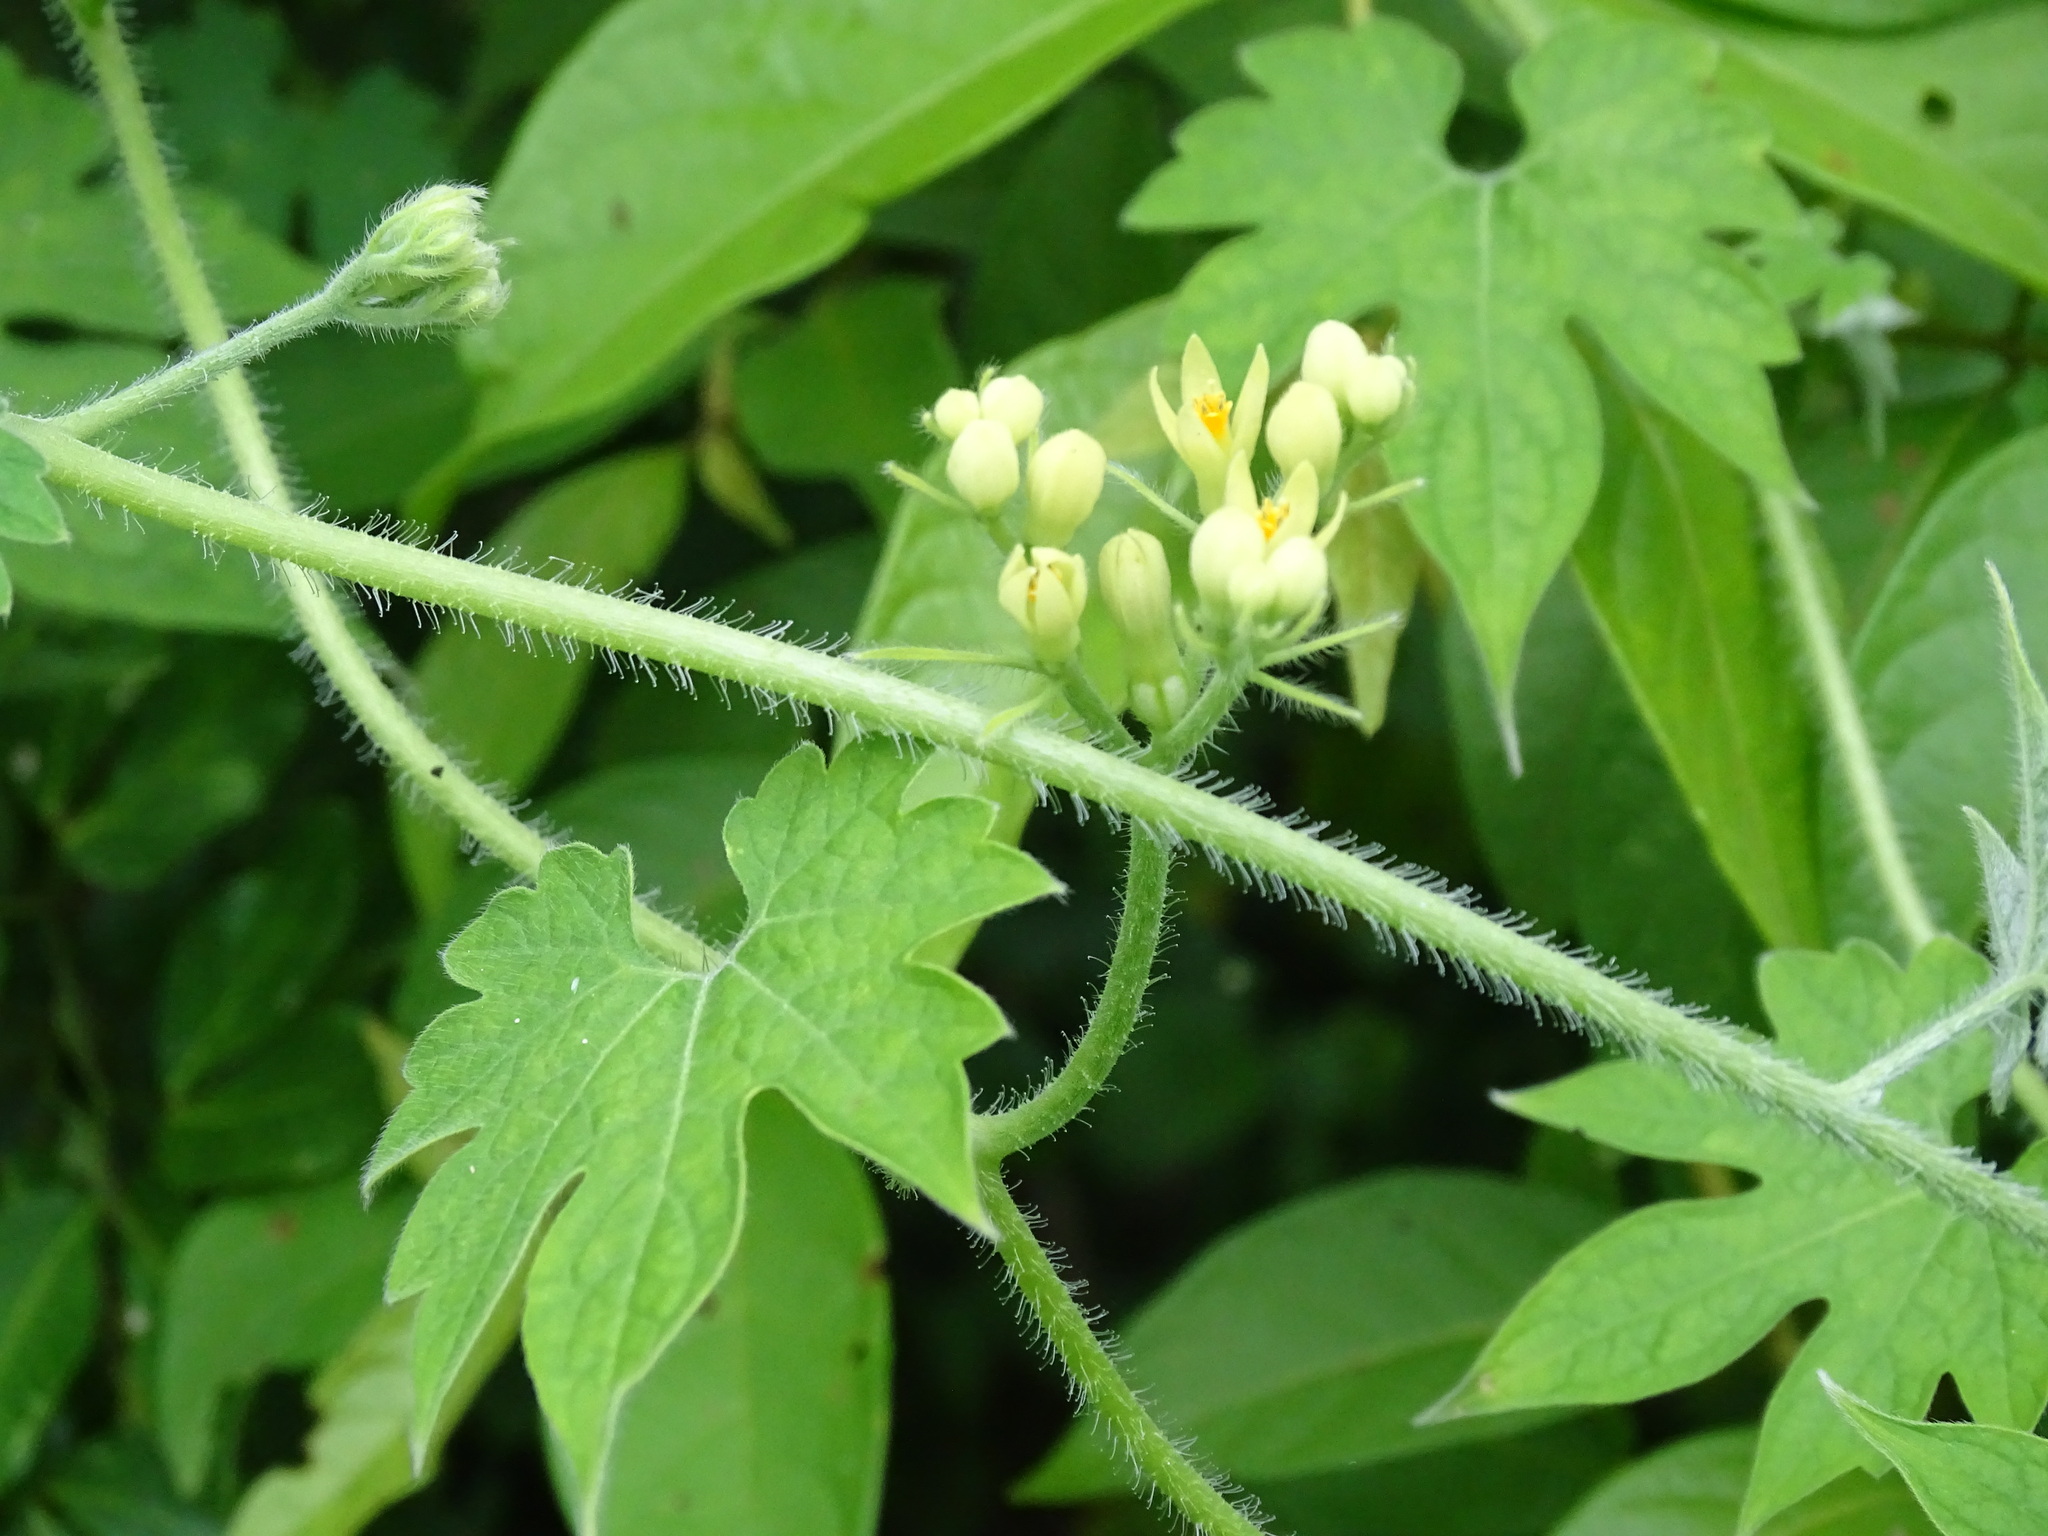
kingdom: Plantae
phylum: Tracheophyta
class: Magnoliopsida
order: Cornales
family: Loasaceae
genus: Gronovia
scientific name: Gronovia scandens
